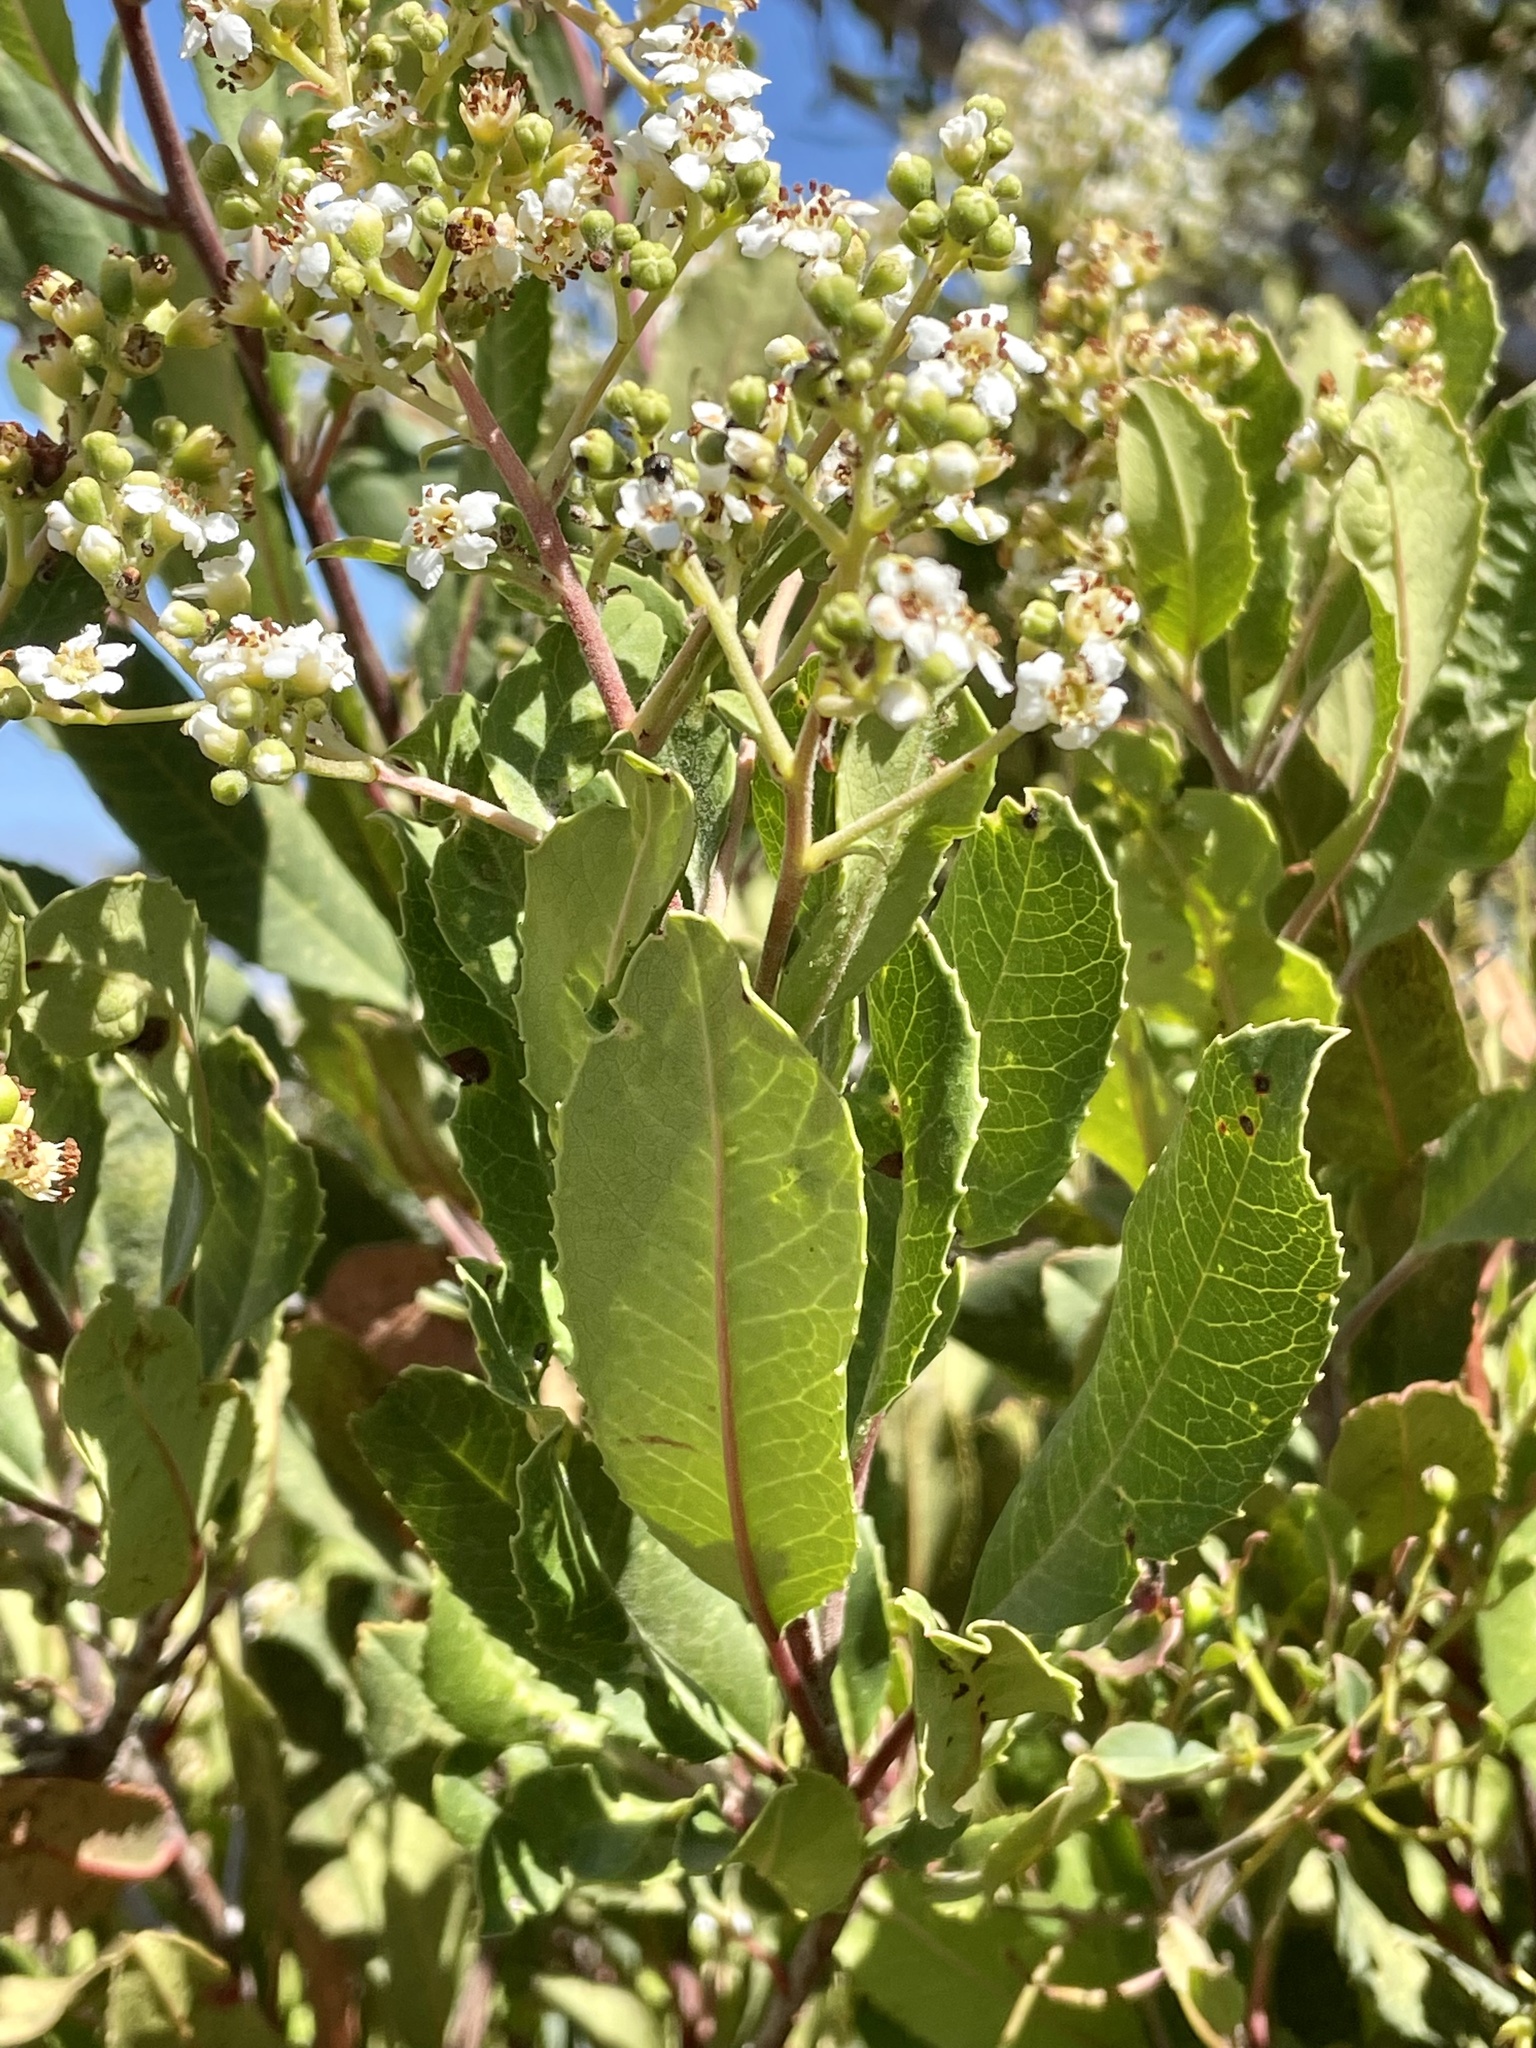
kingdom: Plantae
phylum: Tracheophyta
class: Magnoliopsida
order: Rosales
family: Rosaceae
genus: Heteromeles
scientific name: Heteromeles arbutifolia
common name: California-holly
